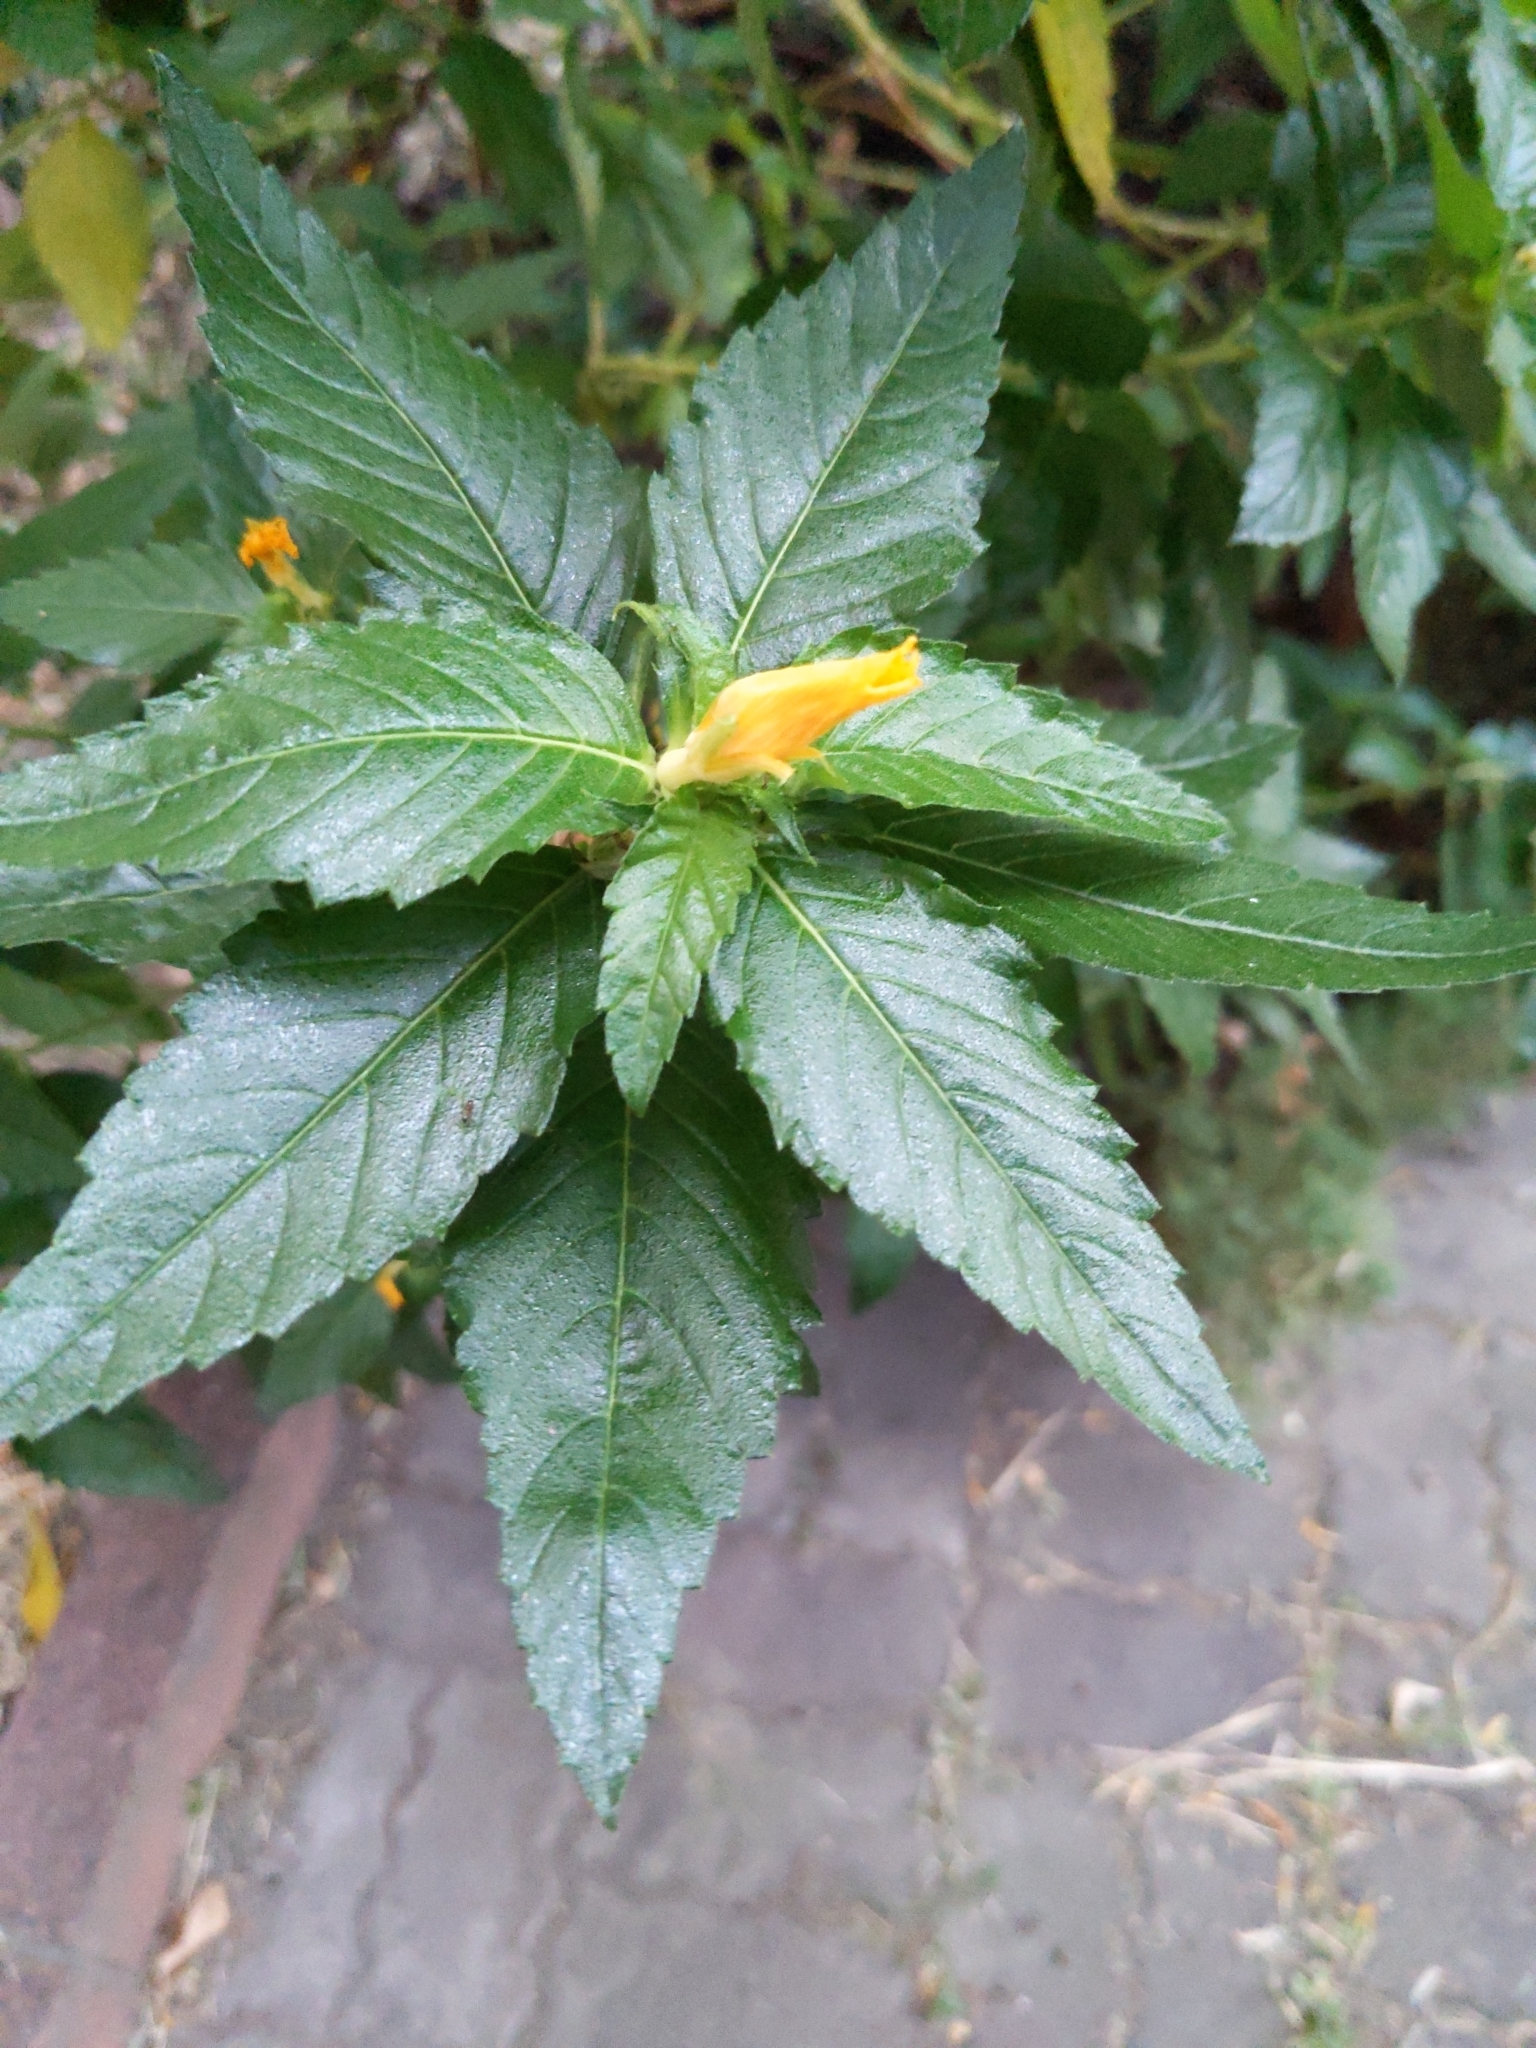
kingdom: Plantae
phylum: Tracheophyta
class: Magnoliopsida
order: Malpighiales
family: Turneraceae
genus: Turnera
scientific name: Turnera ulmifolia
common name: Ramgoat dashalong
